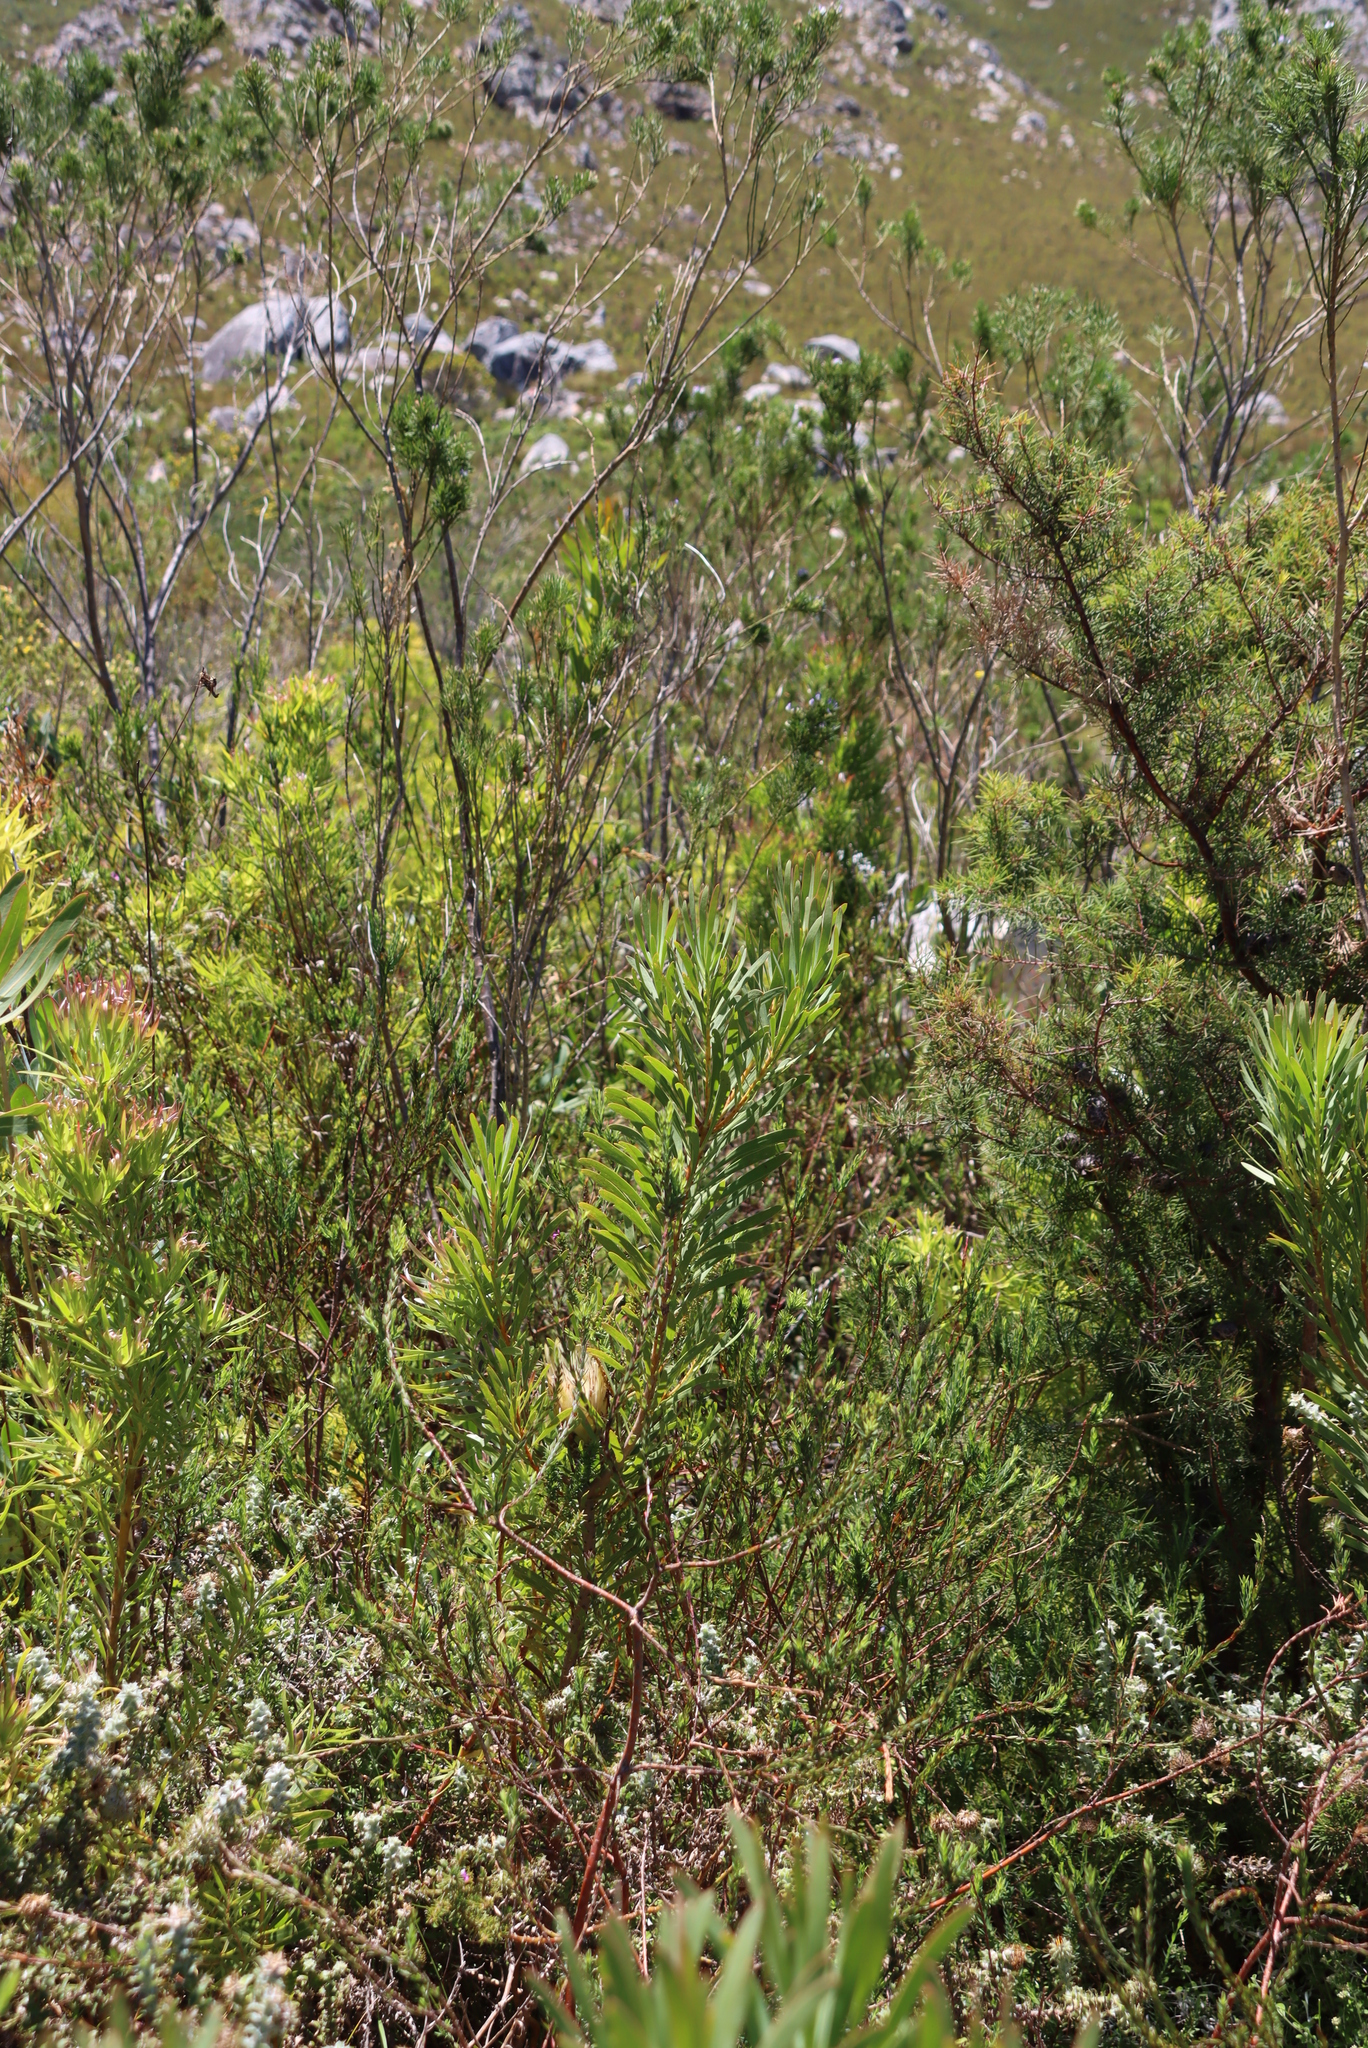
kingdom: Plantae
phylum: Tracheophyta
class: Magnoliopsida
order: Proteales
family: Proteaceae
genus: Protea
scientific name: Protea repens
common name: Sugarbush
